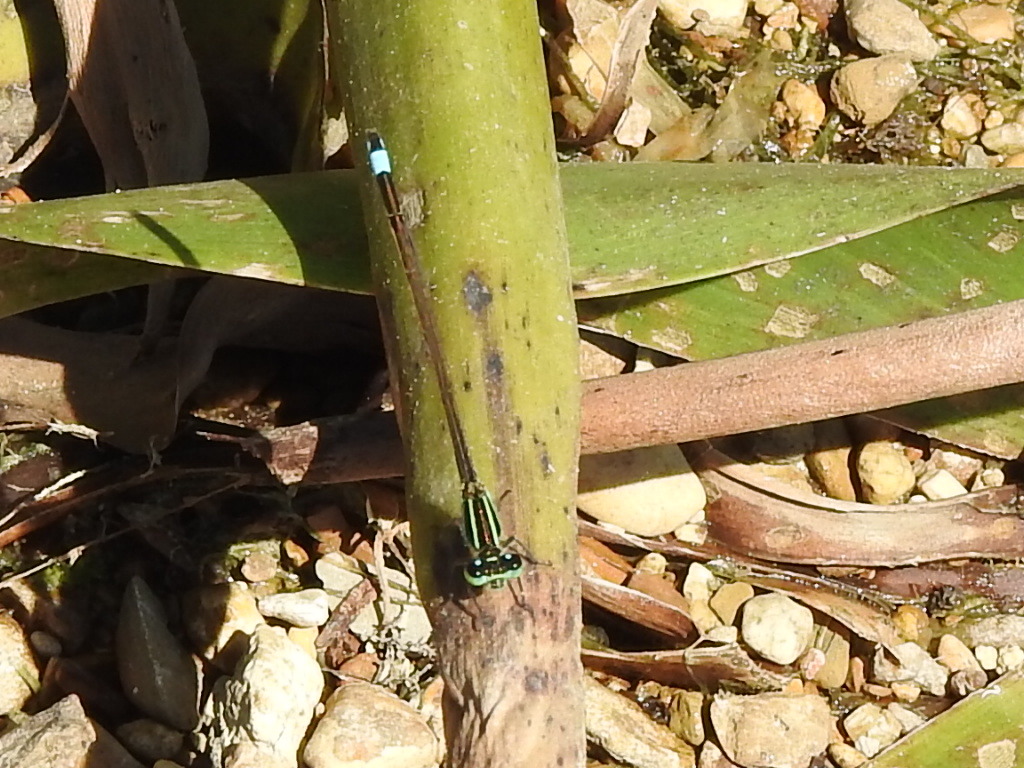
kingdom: Animalia
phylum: Arthropoda
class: Insecta
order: Odonata
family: Coenagrionidae
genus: Ischnura
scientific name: Ischnura ramburii
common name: Rambur's forktail
